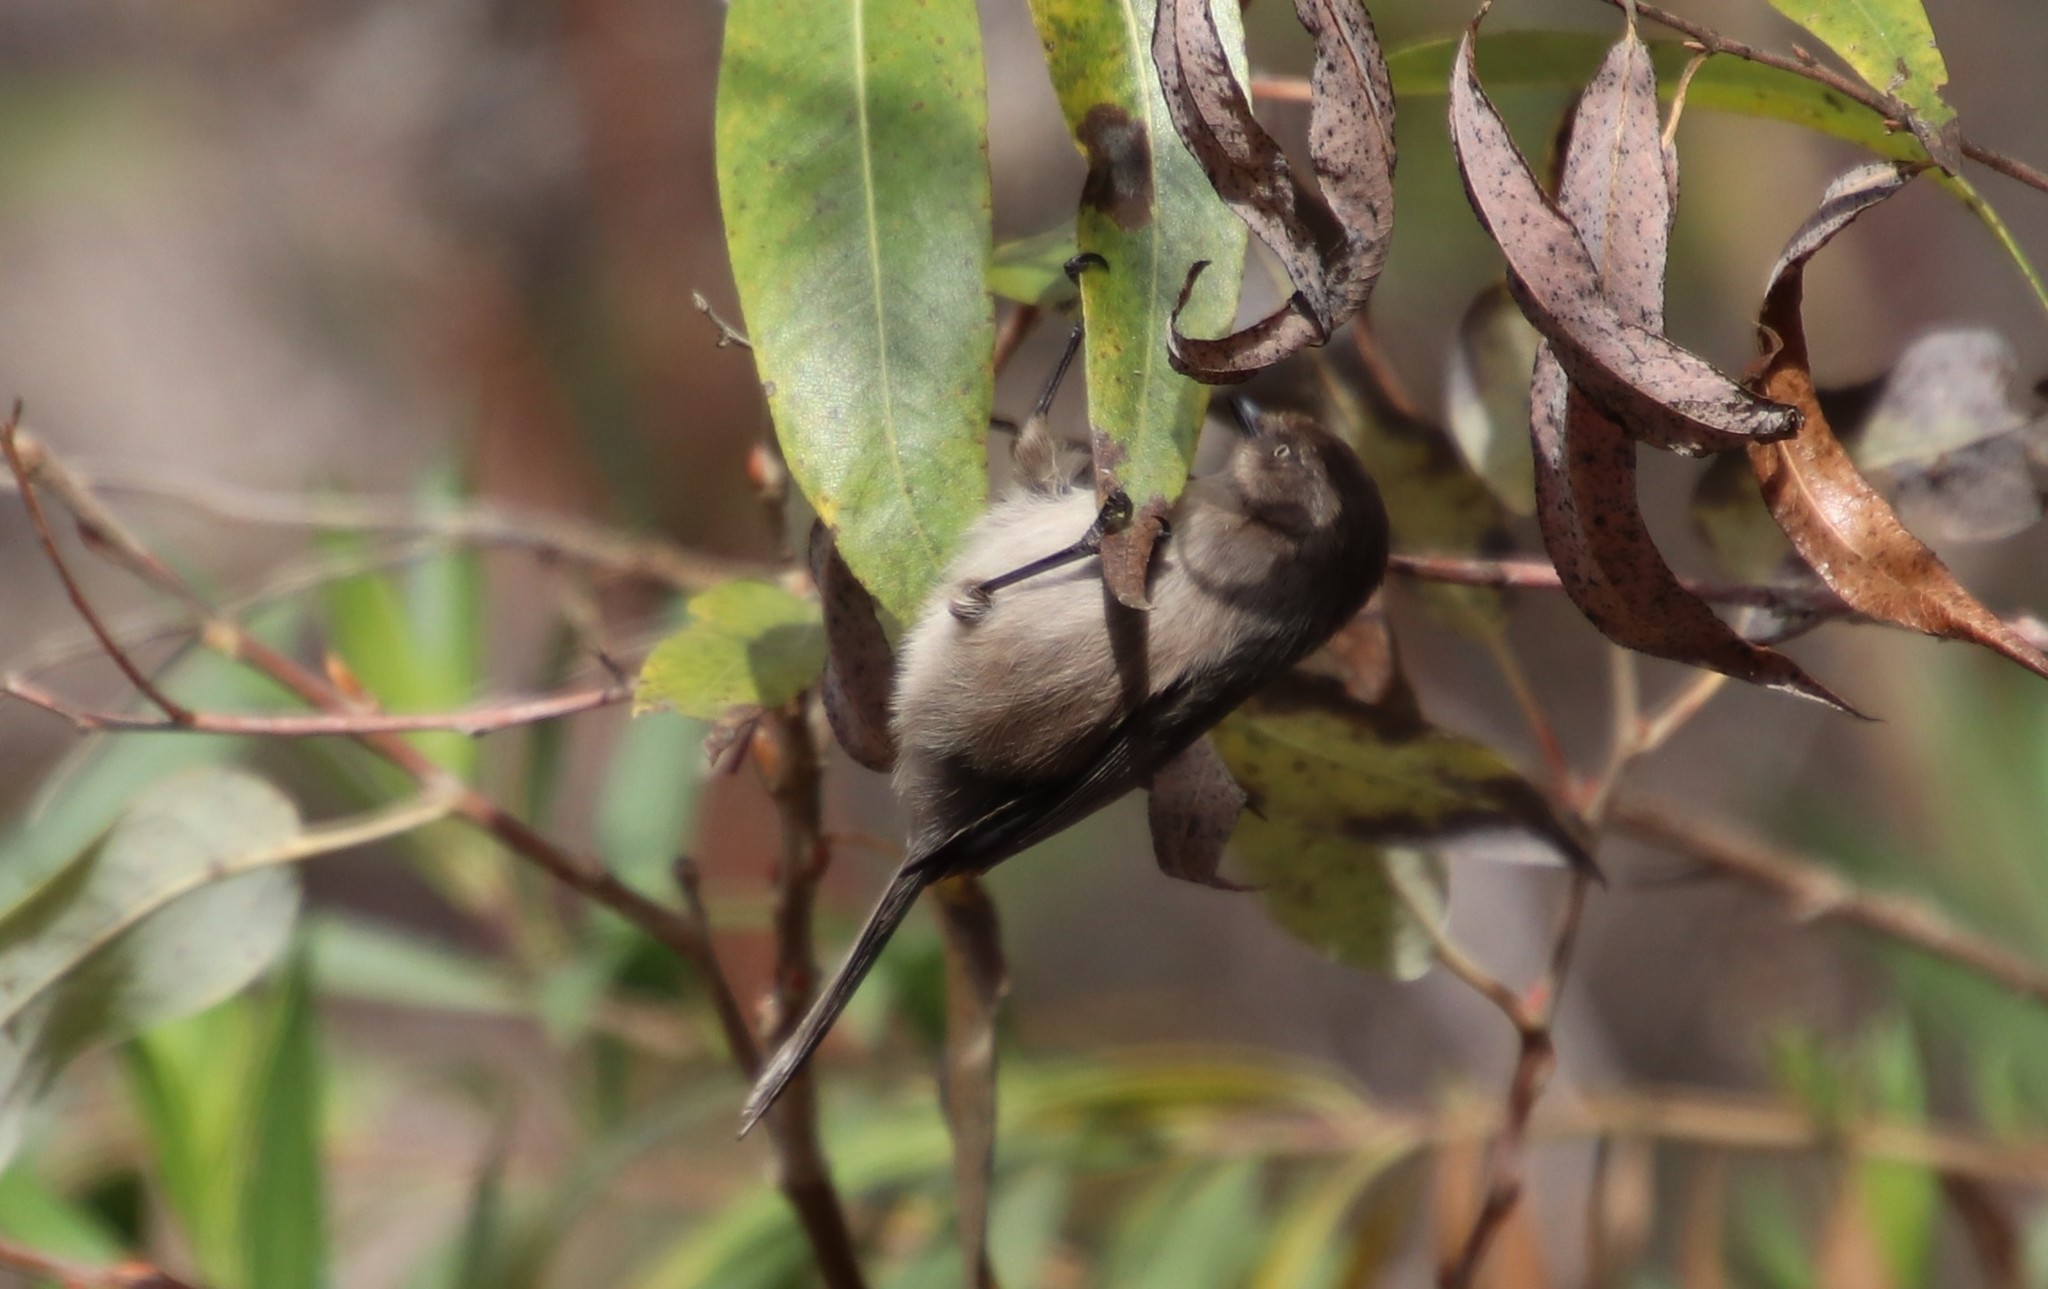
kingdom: Animalia
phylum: Chordata
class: Aves
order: Passeriformes
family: Aegithalidae
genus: Psaltriparus
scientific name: Psaltriparus minimus
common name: American bushtit
